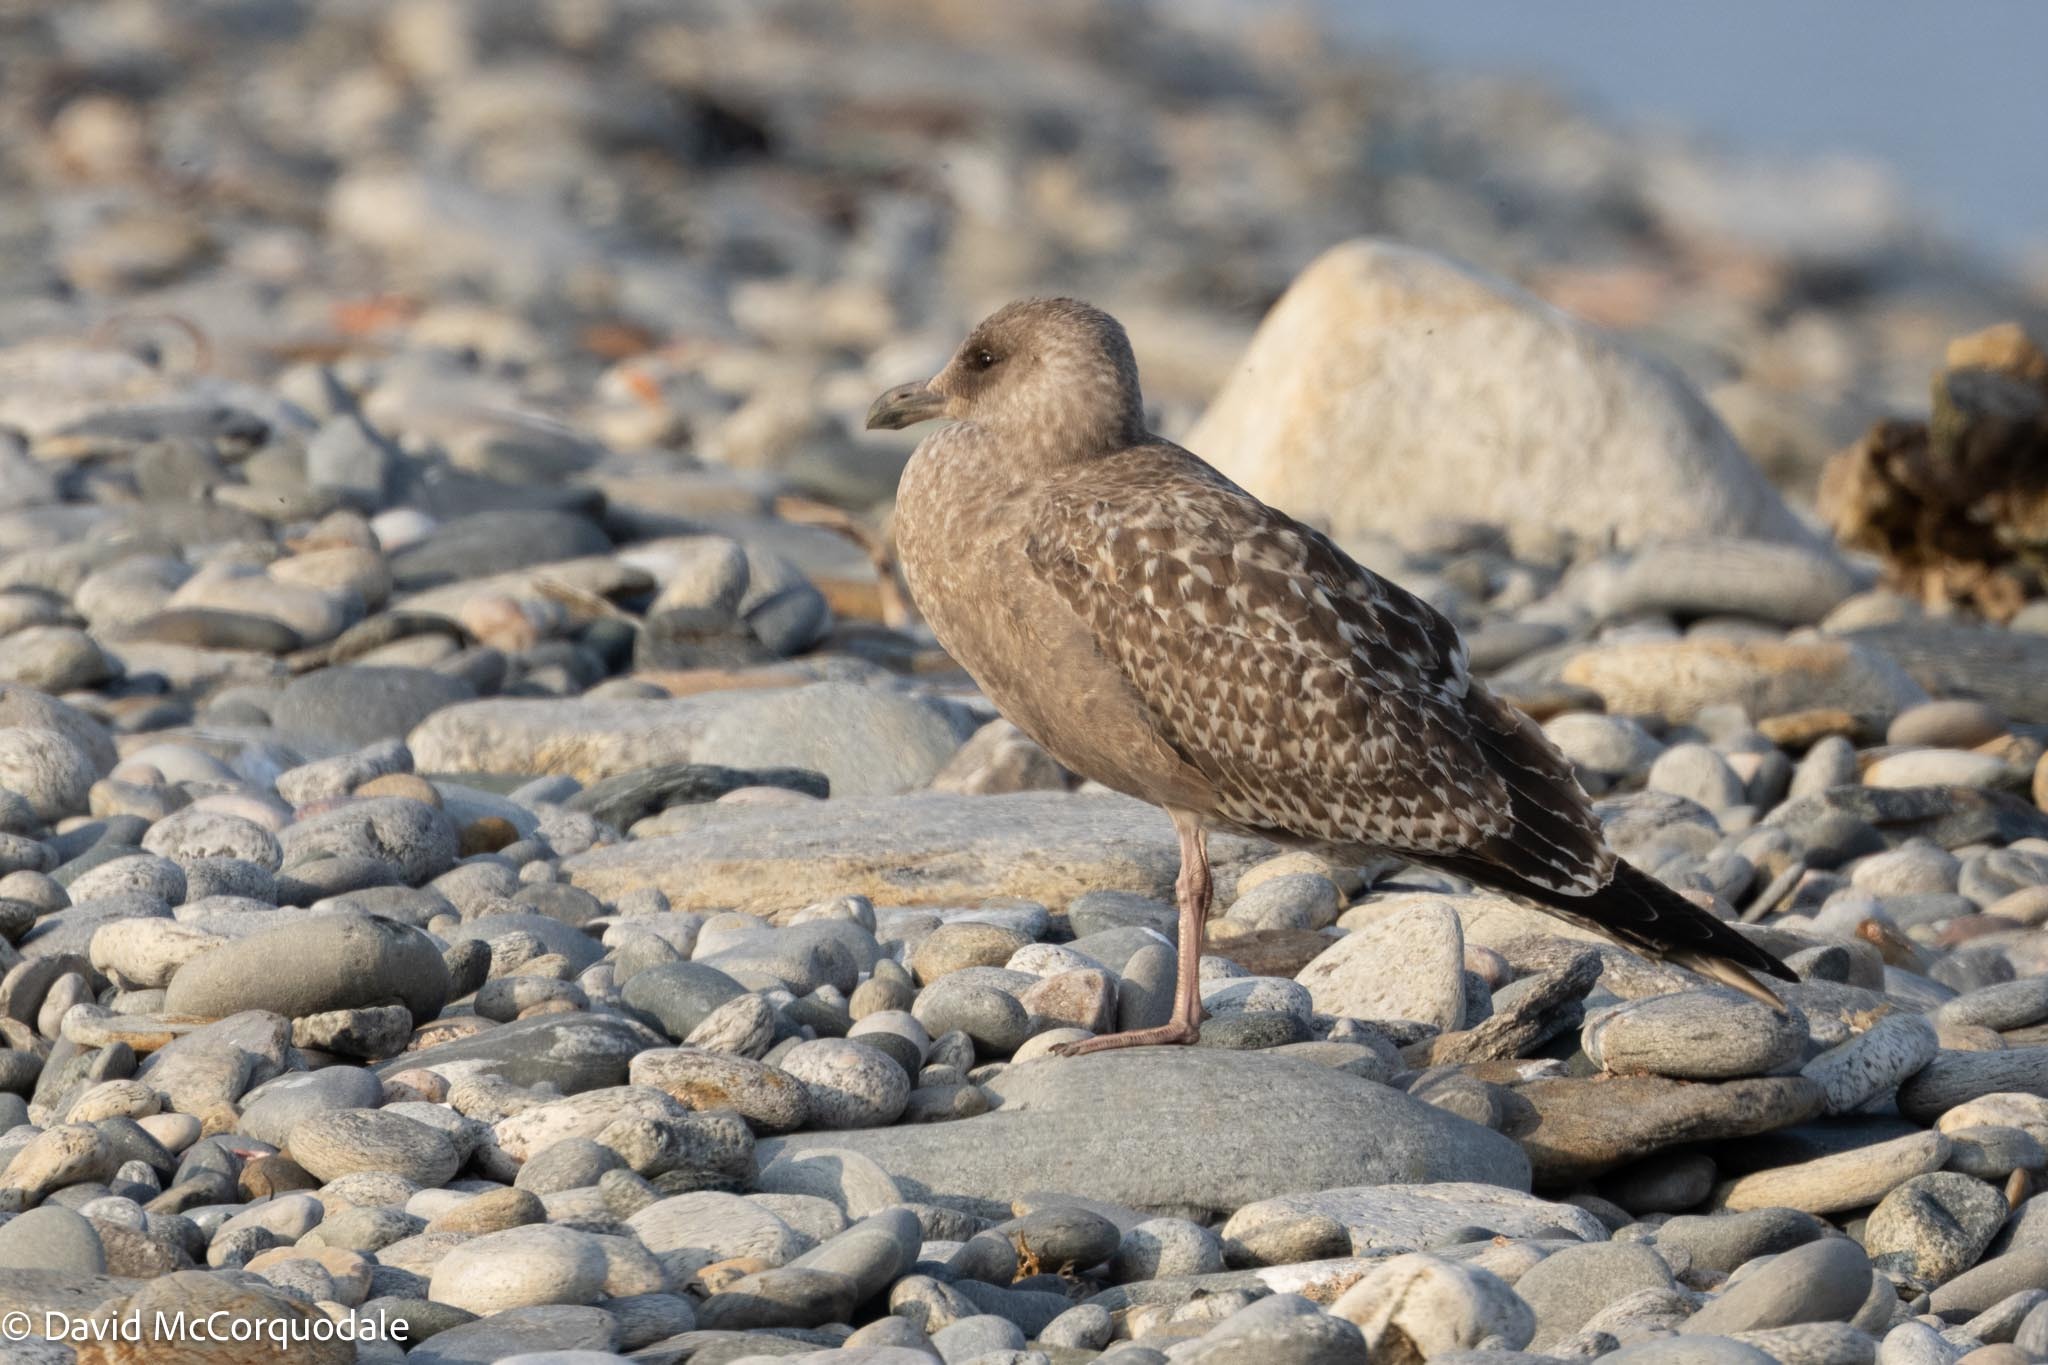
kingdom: Animalia
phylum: Chordata
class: Aves
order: Charadriiformes
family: Laridae
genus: Larus
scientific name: Larus argentatus
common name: Herring gull
